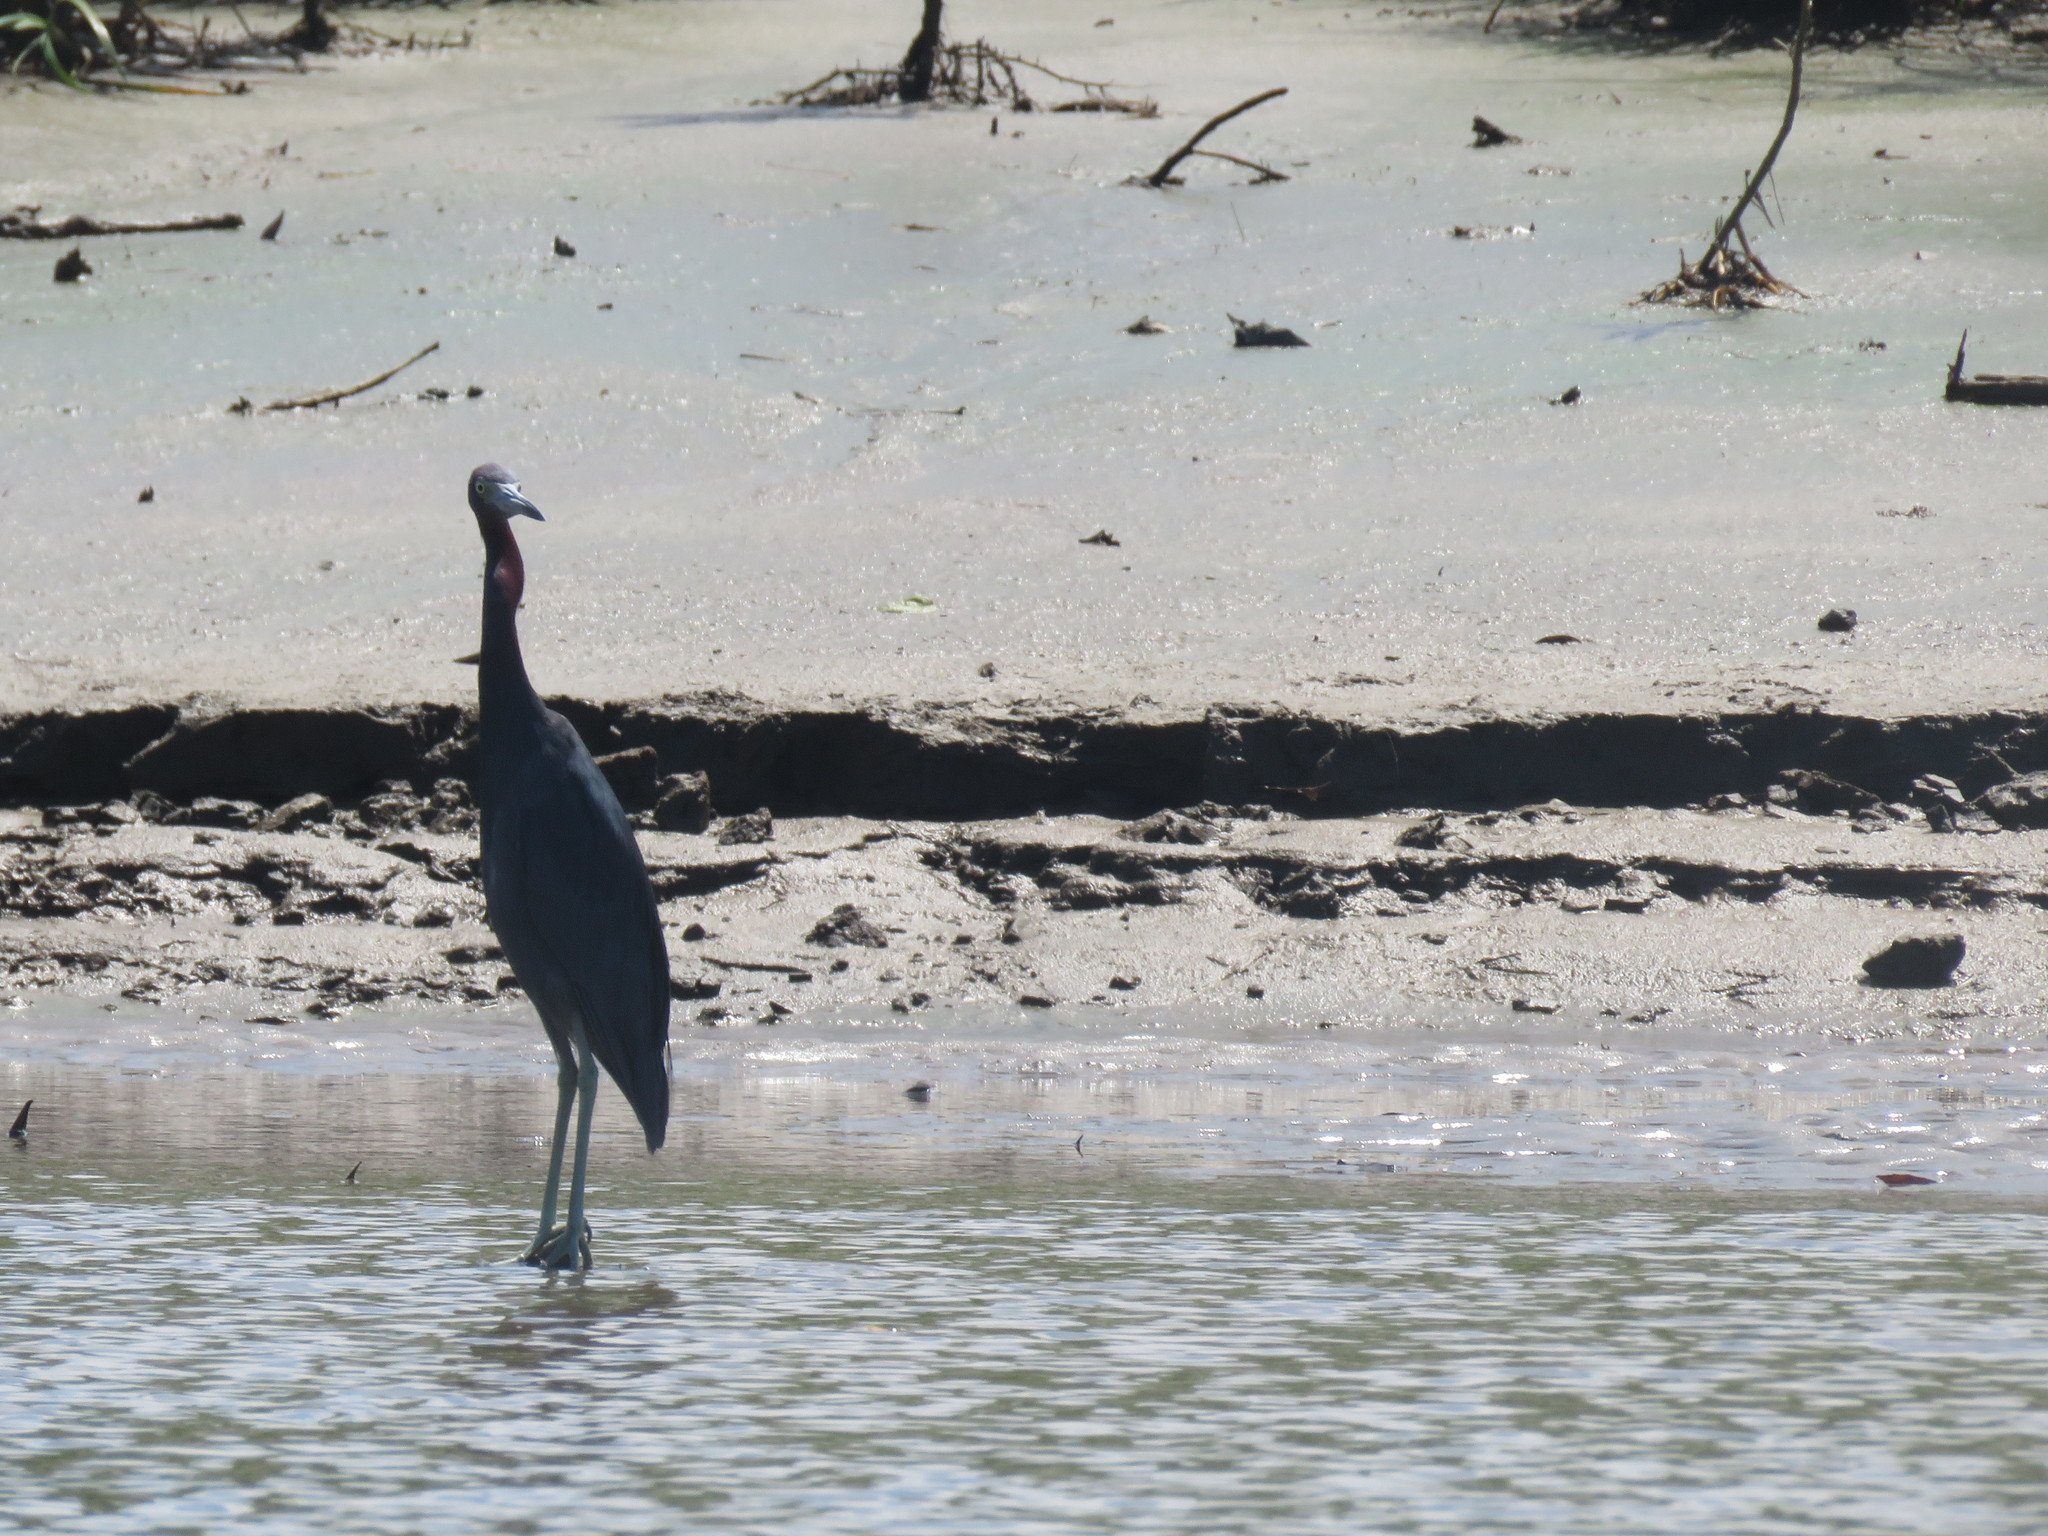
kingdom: Animalia
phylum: Chordata
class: Aves
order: Pelecaniformes
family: Ardeidae
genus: Egretta
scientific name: Egretta caerulea
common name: Little blue heron
